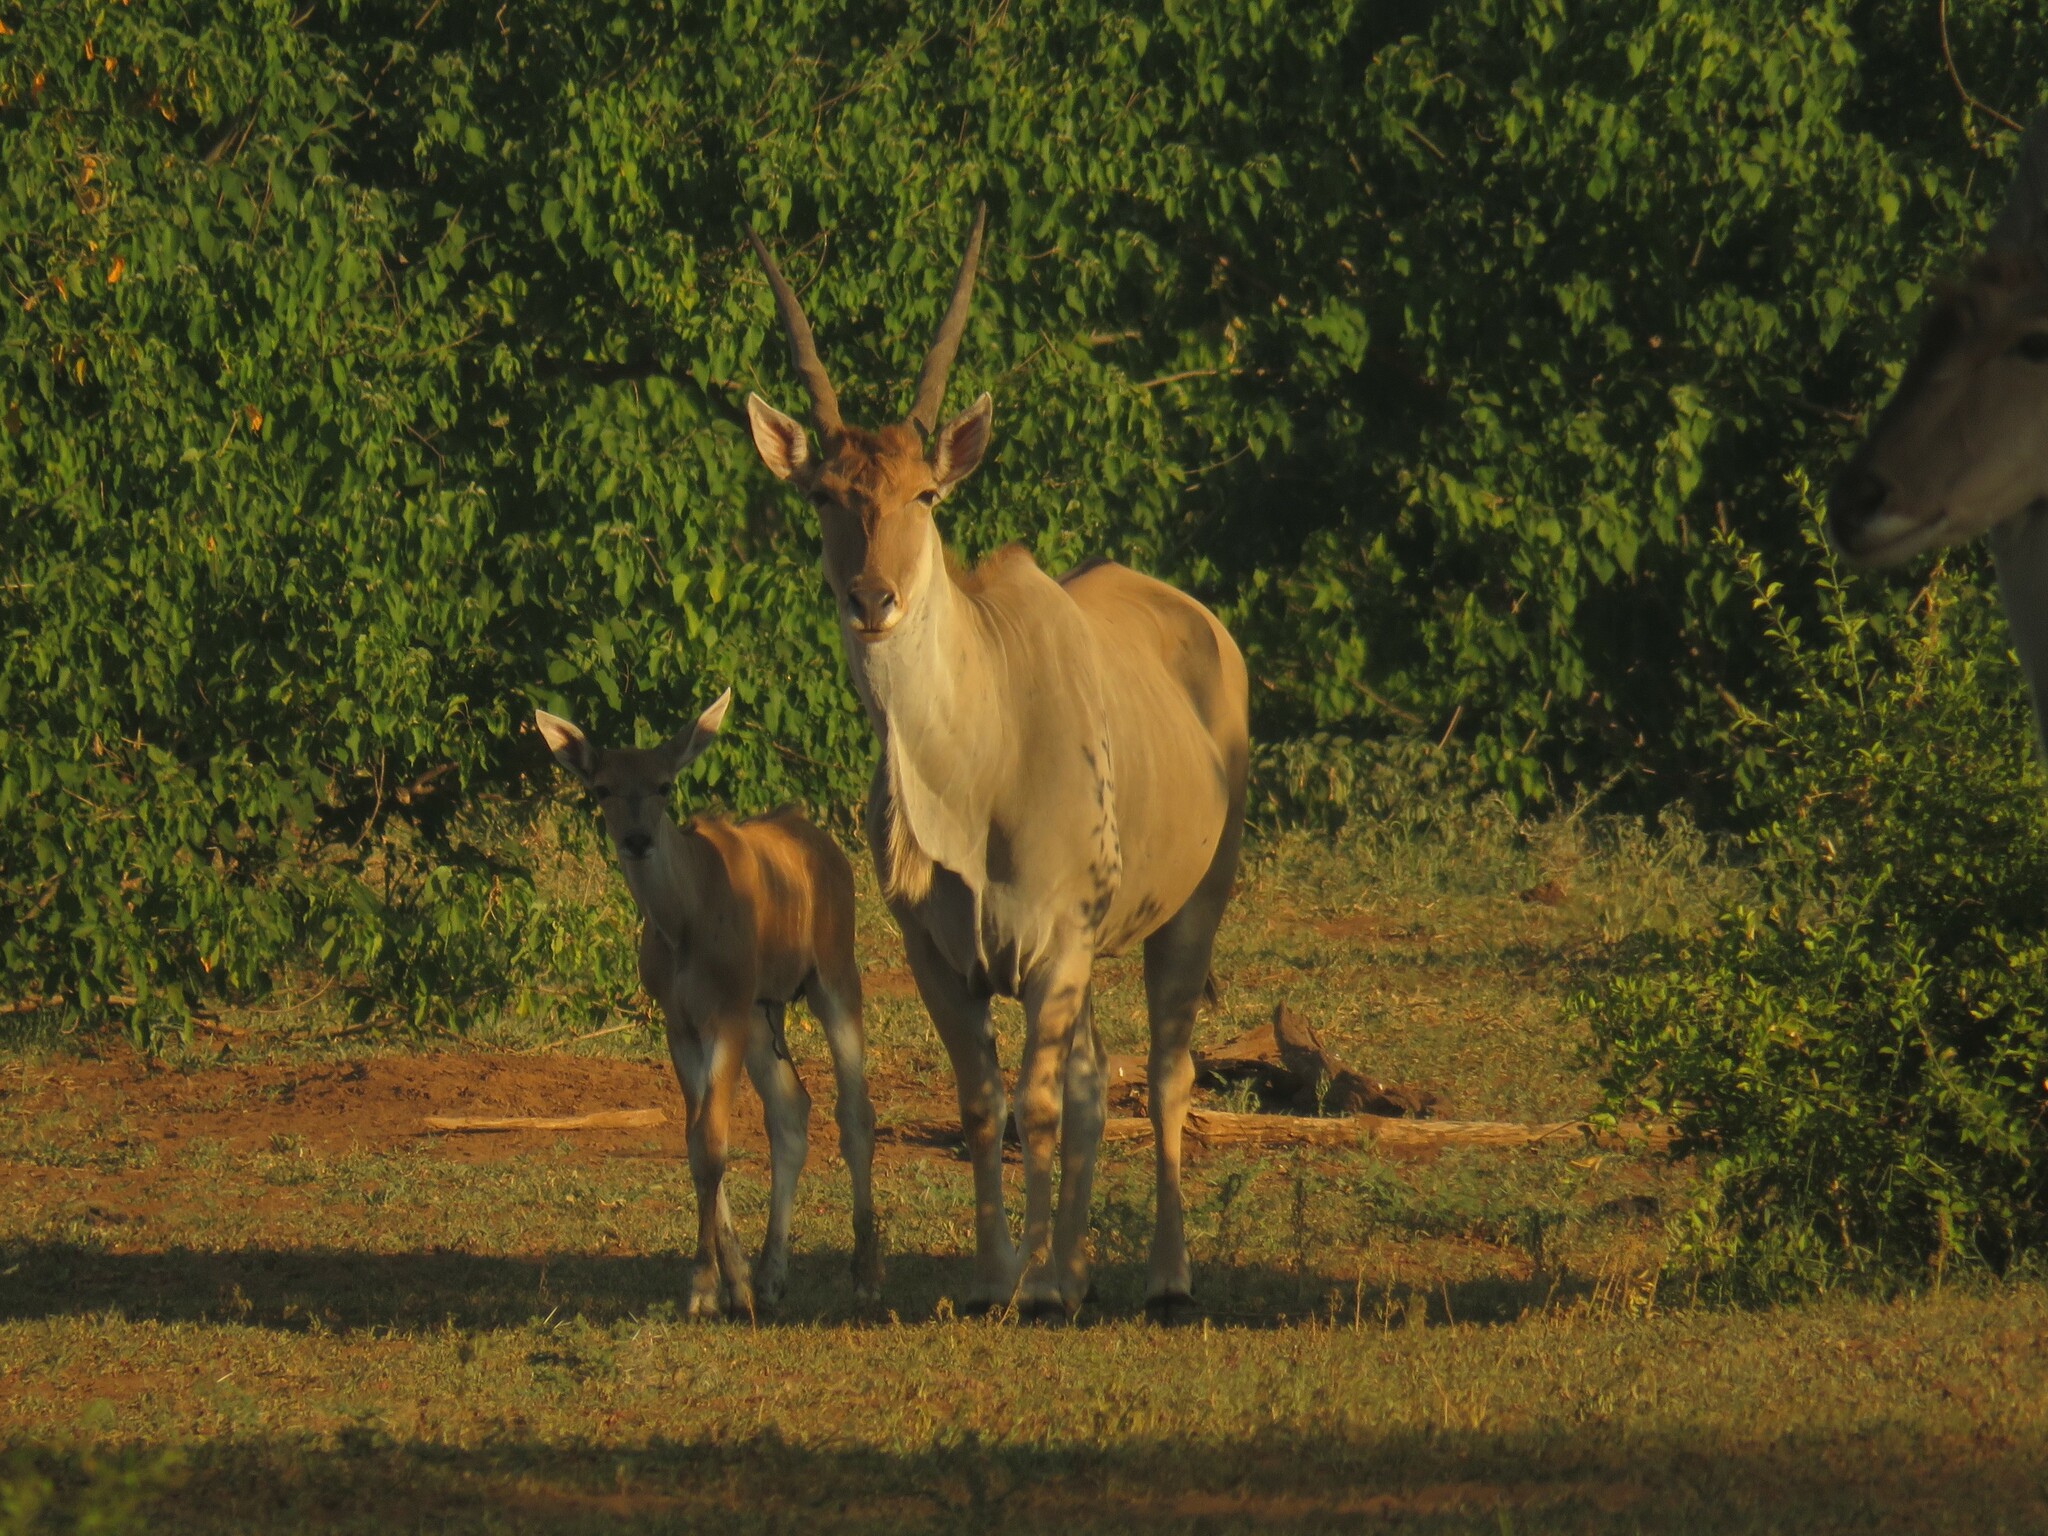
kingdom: Animalia
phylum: Chordata
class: Mammalia
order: Artiodactyla
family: Bovidae
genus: Taurotragus
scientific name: Taurotragus oryx
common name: Common eland
